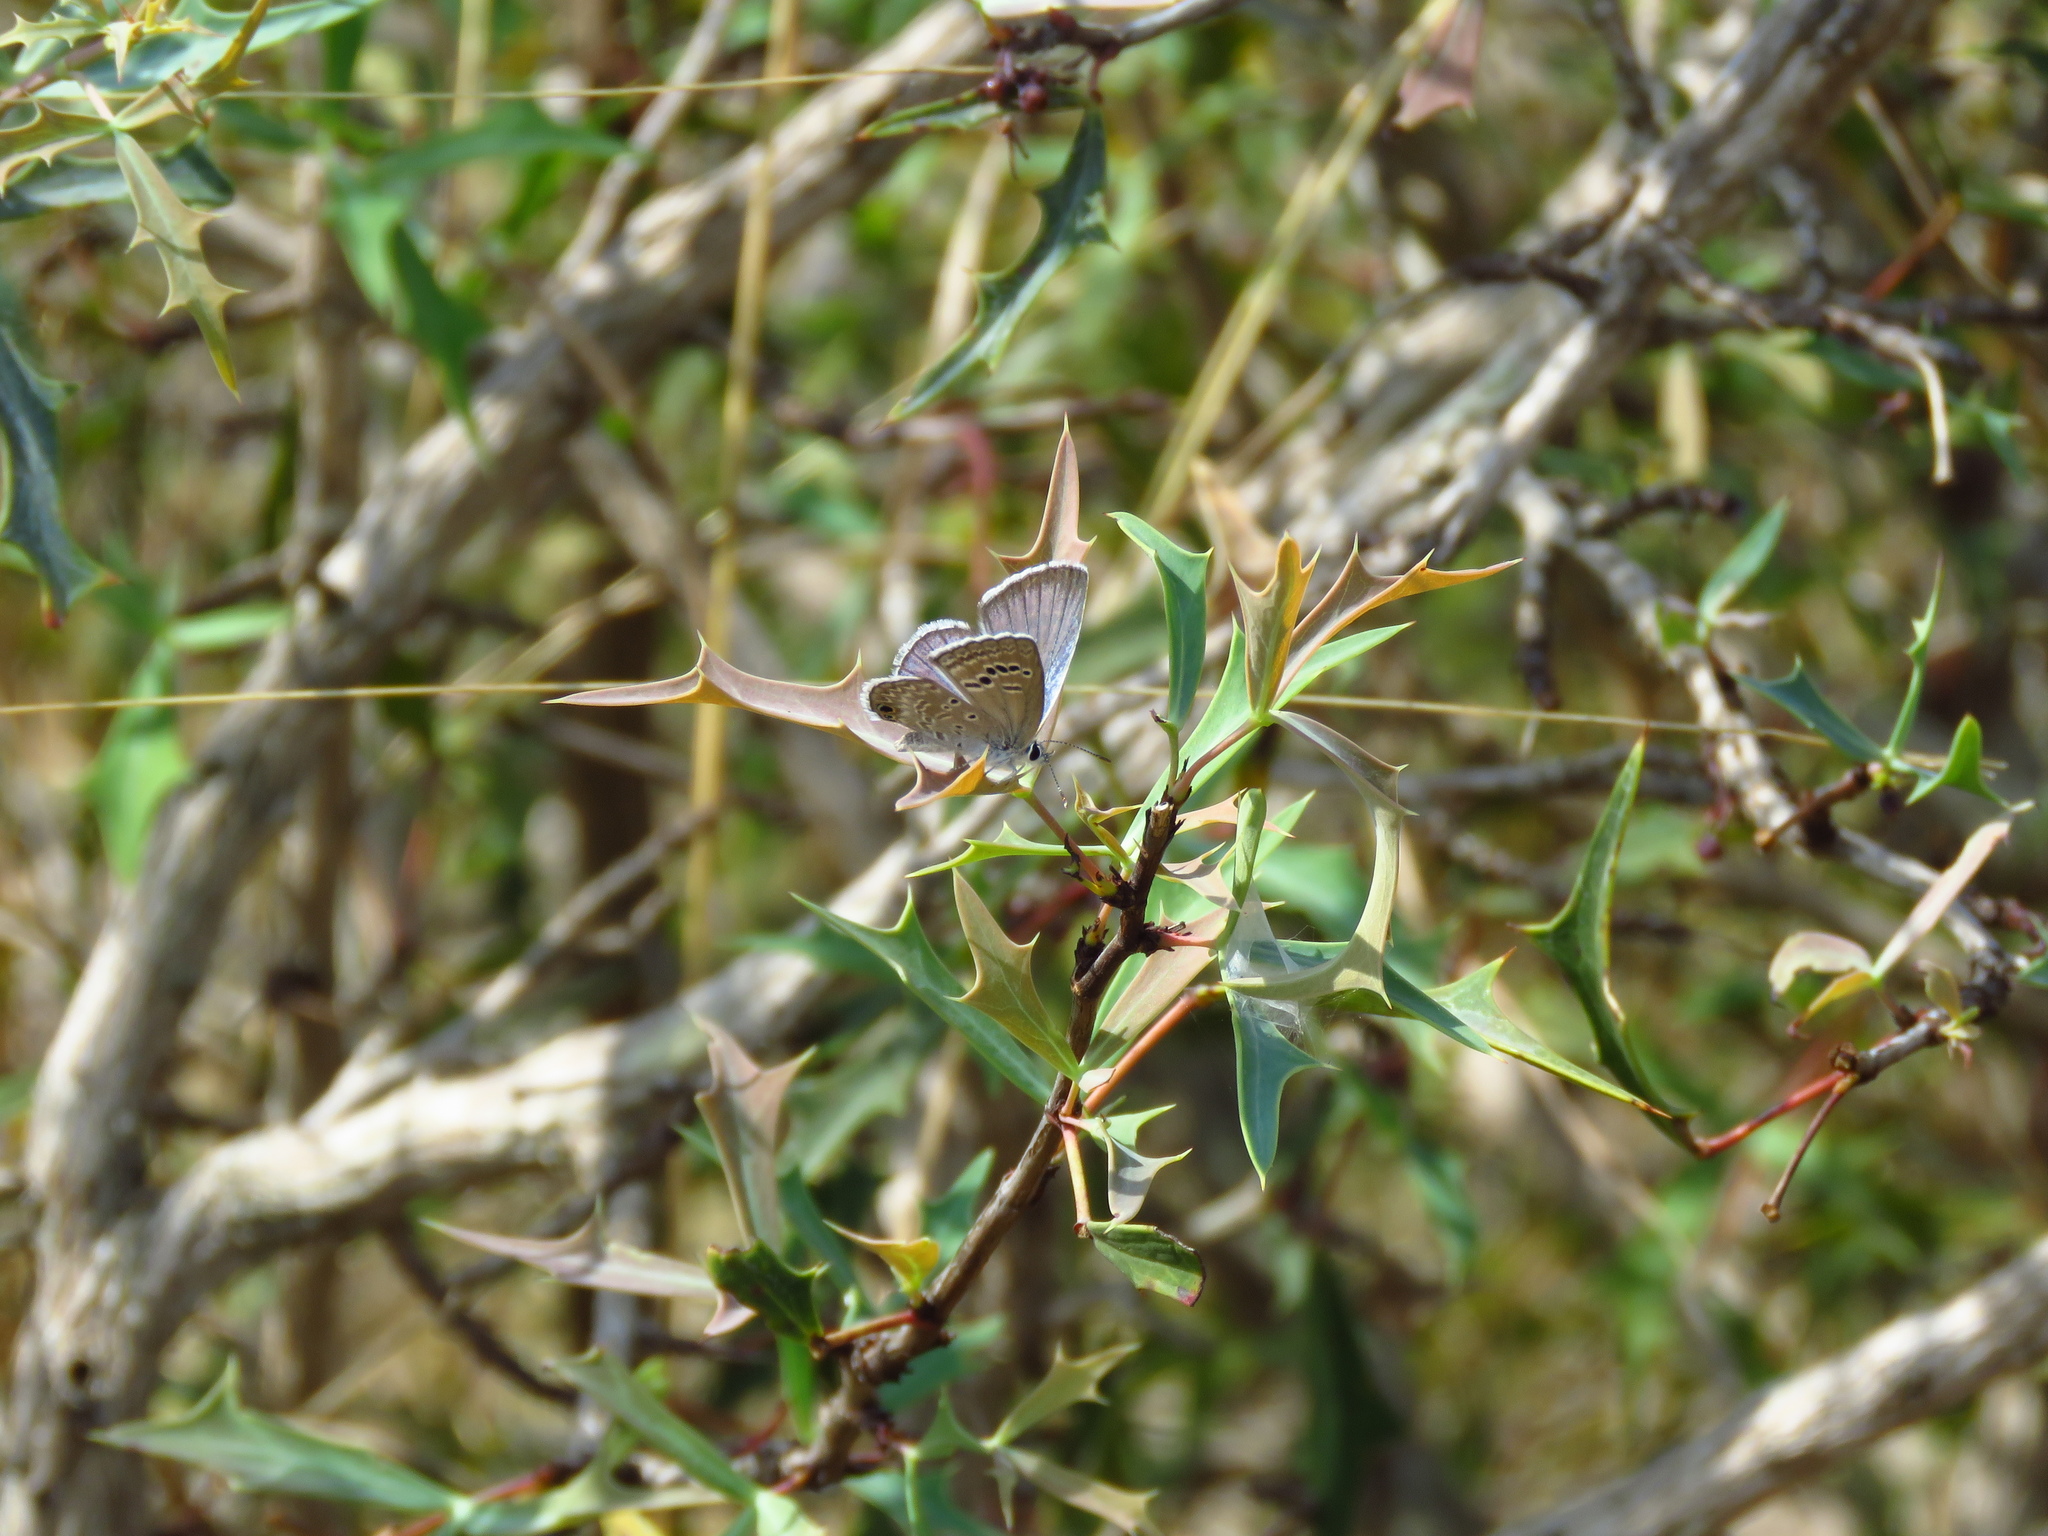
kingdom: Plantae
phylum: Tracheophyta
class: Magnoliopsida
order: Ranunculales
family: Berberidaceae
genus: Alloberberis
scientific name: Alloberberis trifoliolata
